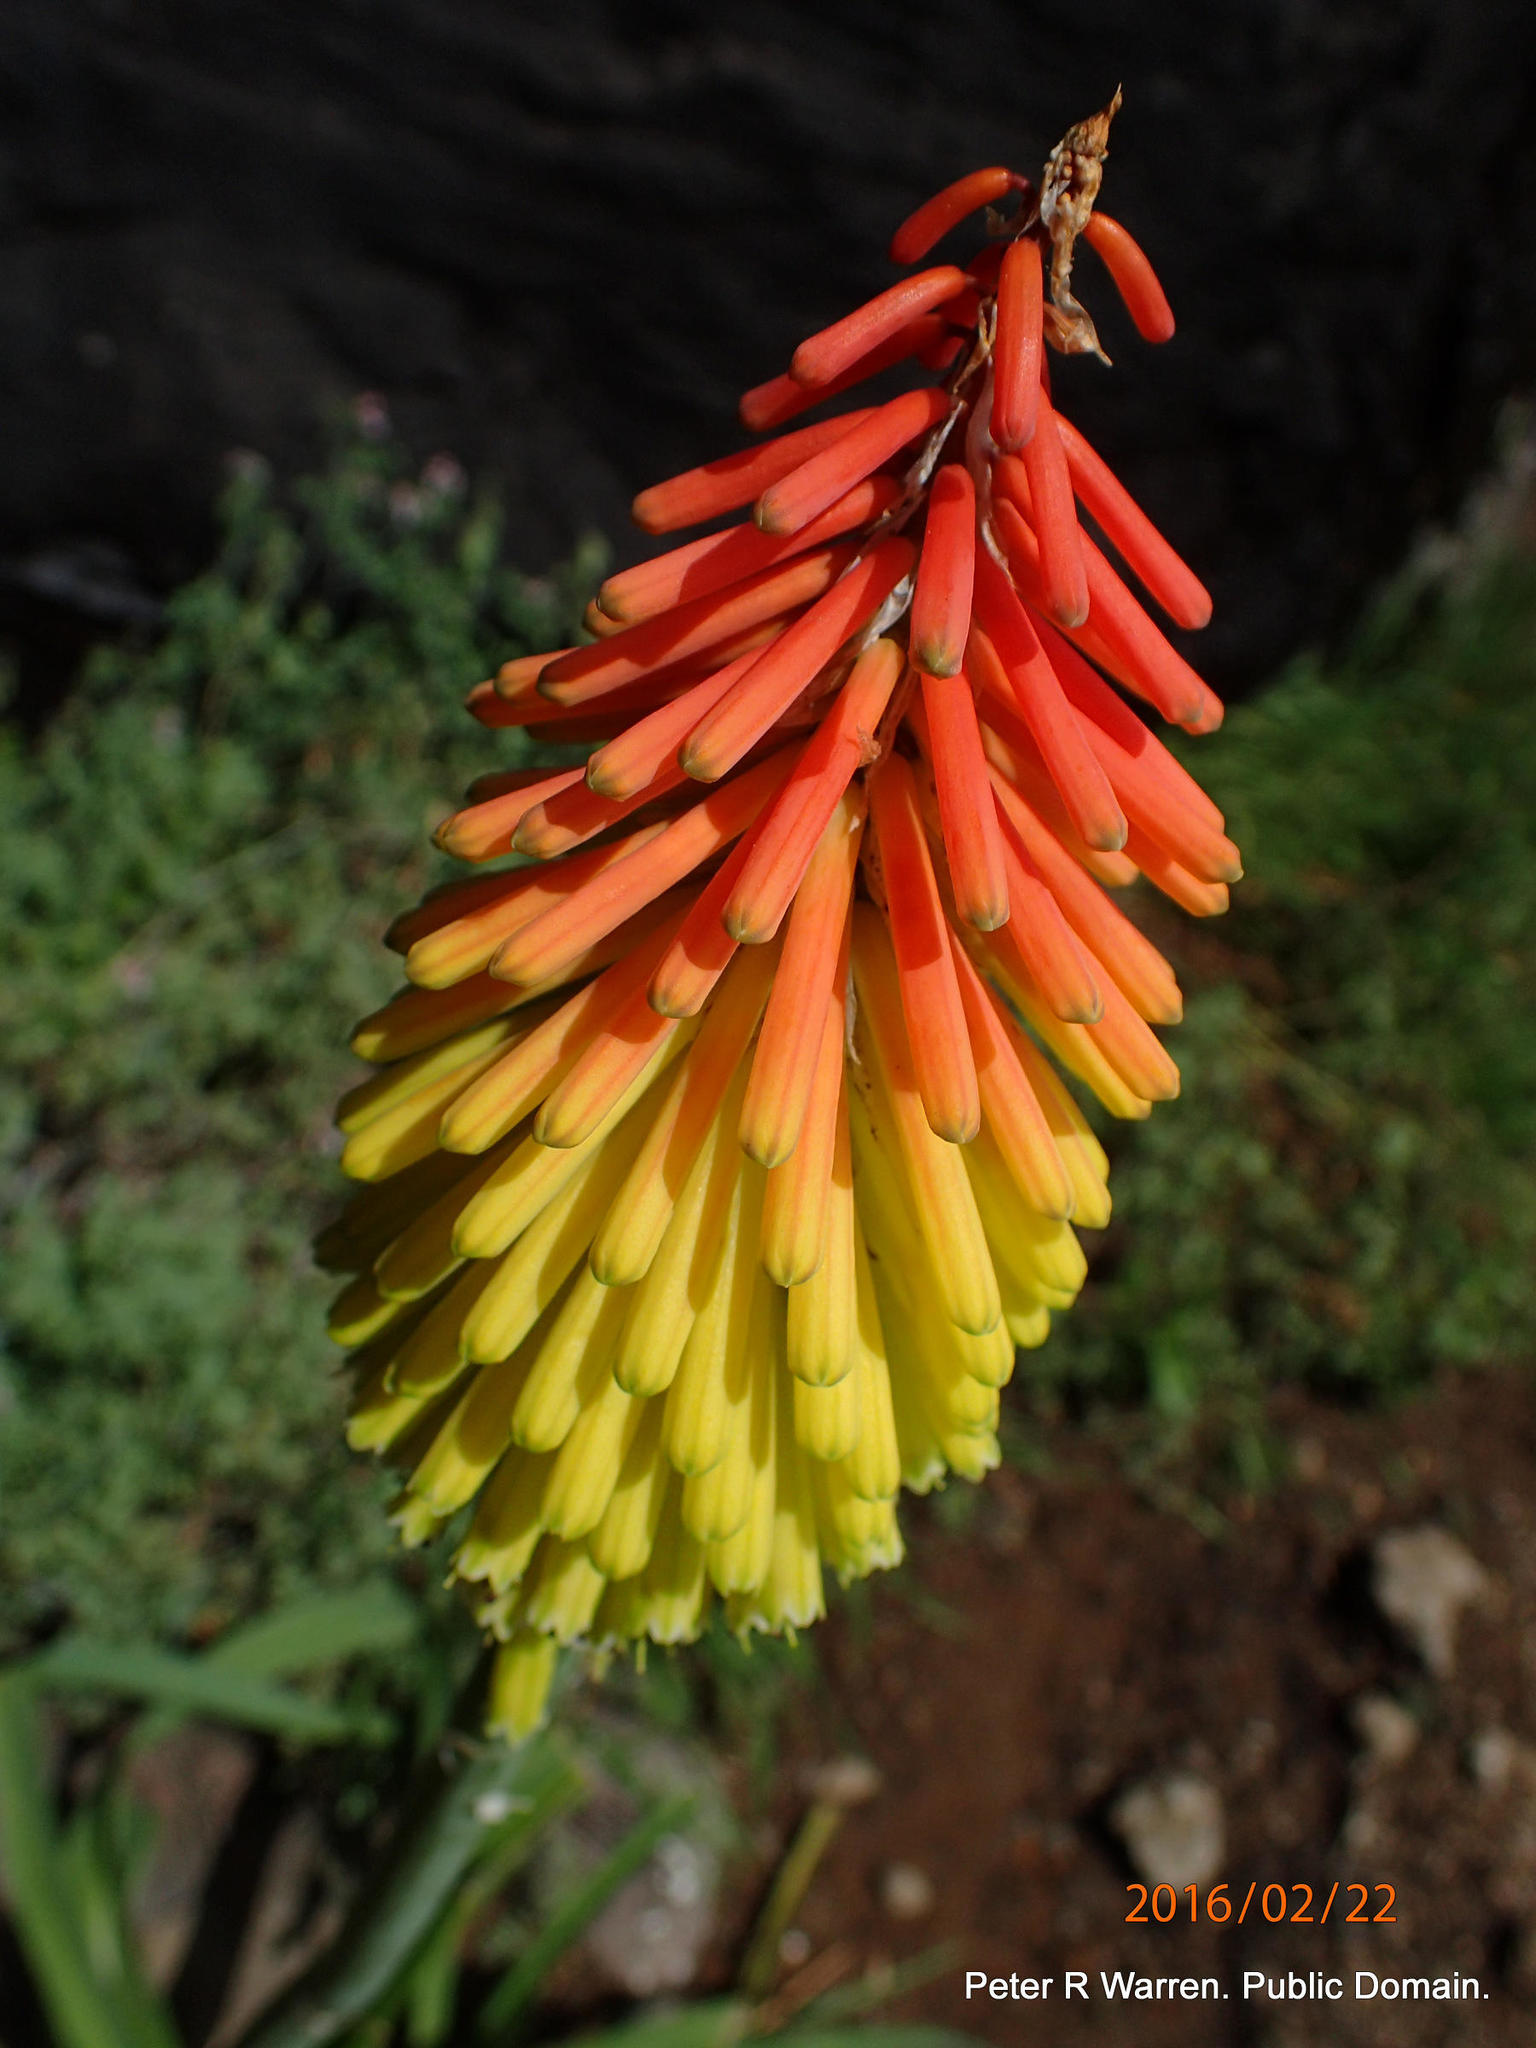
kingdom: Plantae
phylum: Tracheophyta
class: Liliopsida
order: Asparagales
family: Asphodelaceae
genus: Kniphofia
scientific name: Kniphofia ritualis
